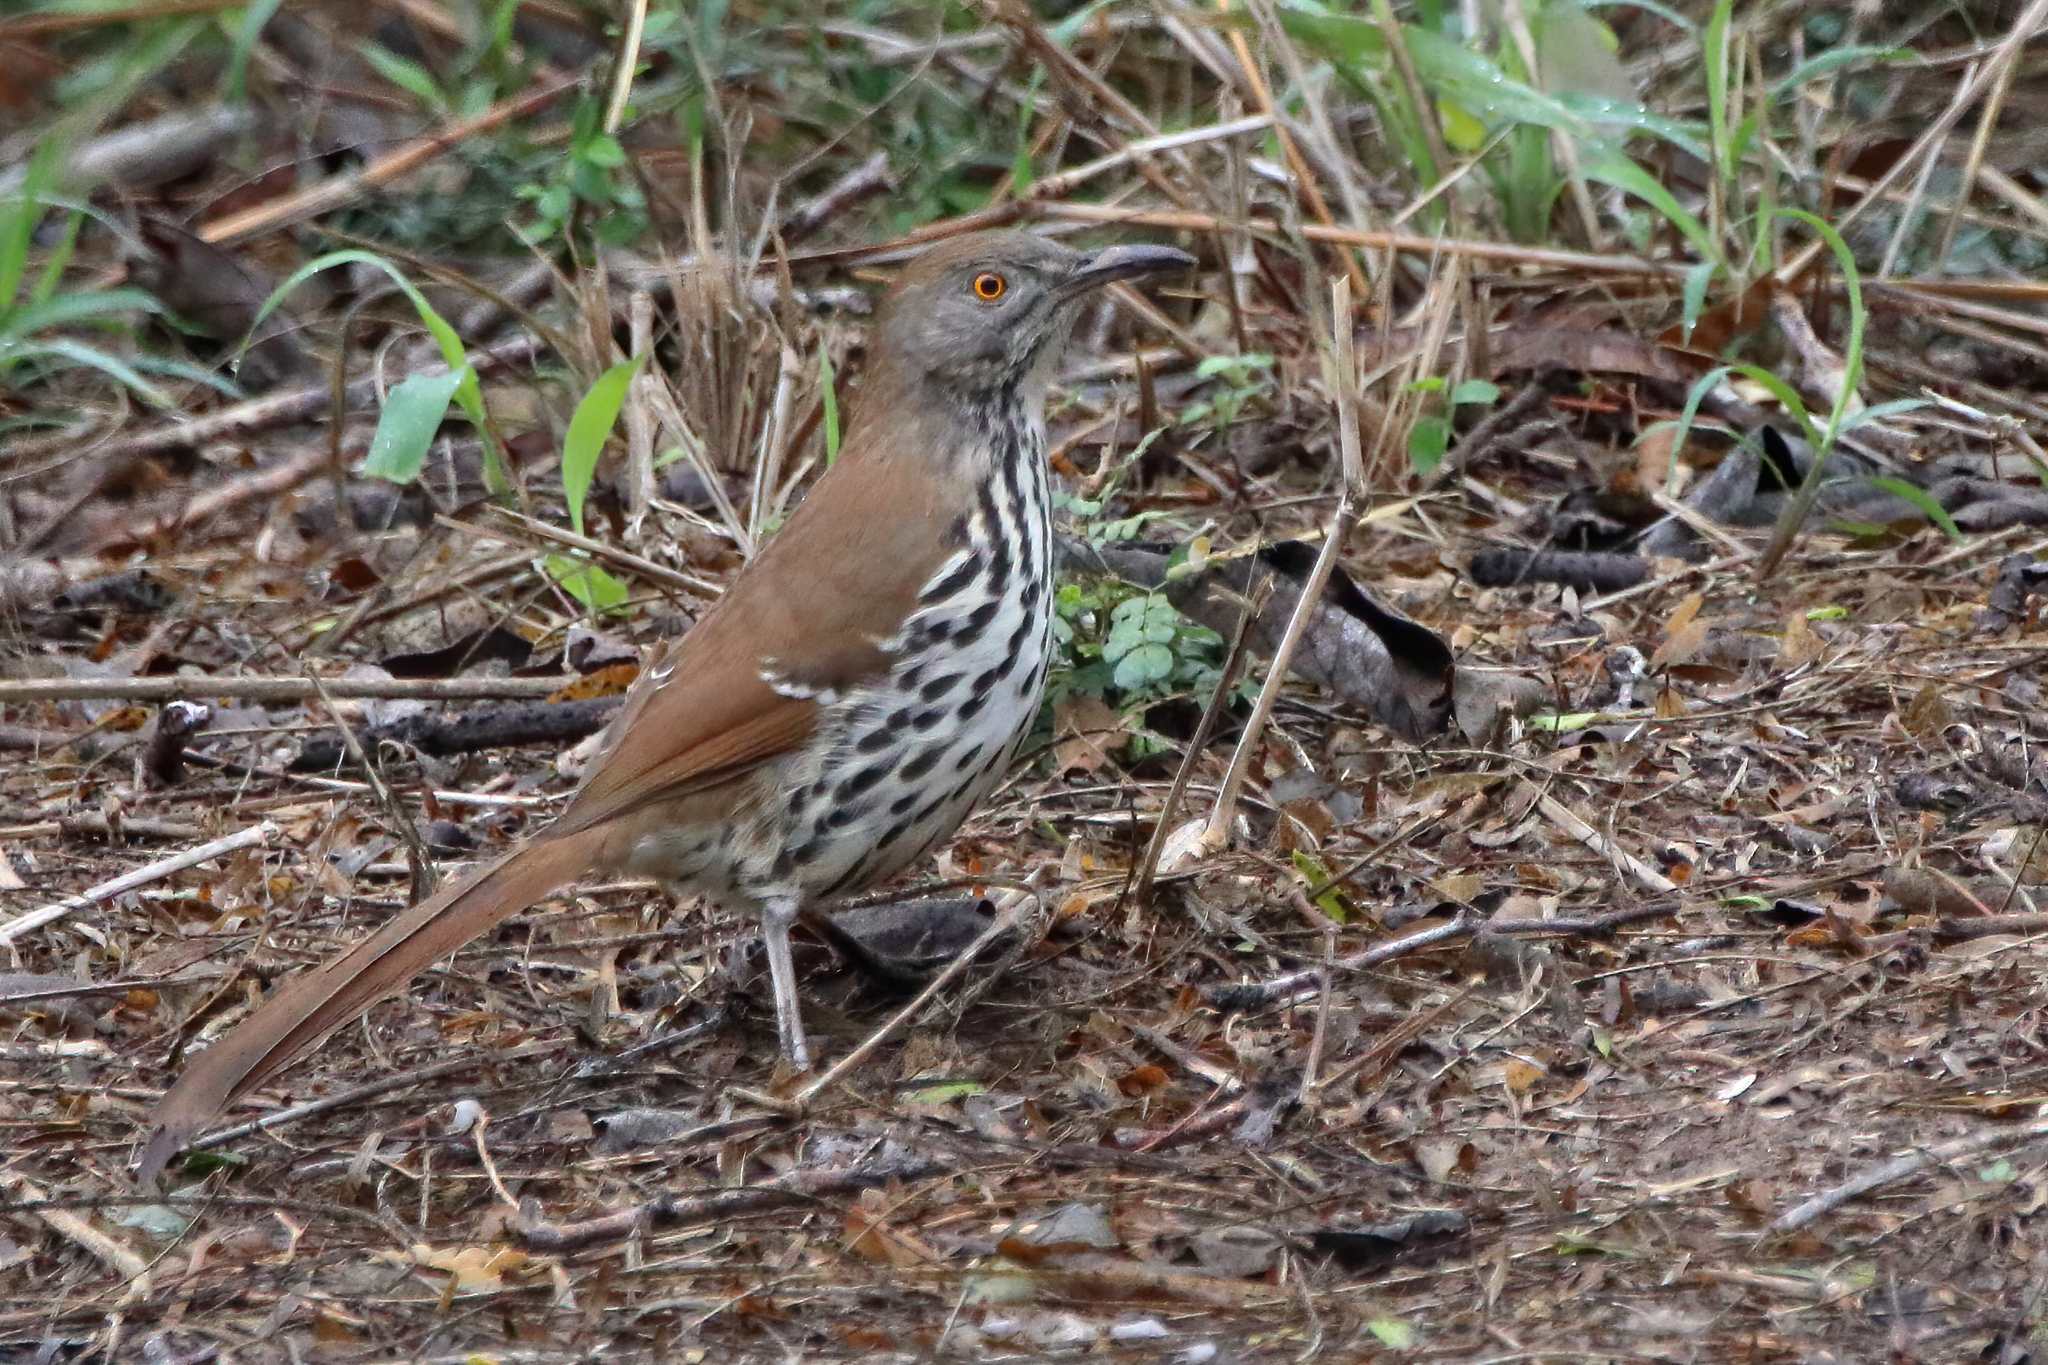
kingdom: Animalia
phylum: Chordata
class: Aves
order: Passeriformes
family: Mimidae
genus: Toxostoma
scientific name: Toxostoma longirostre
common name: Long-billed thrasher
